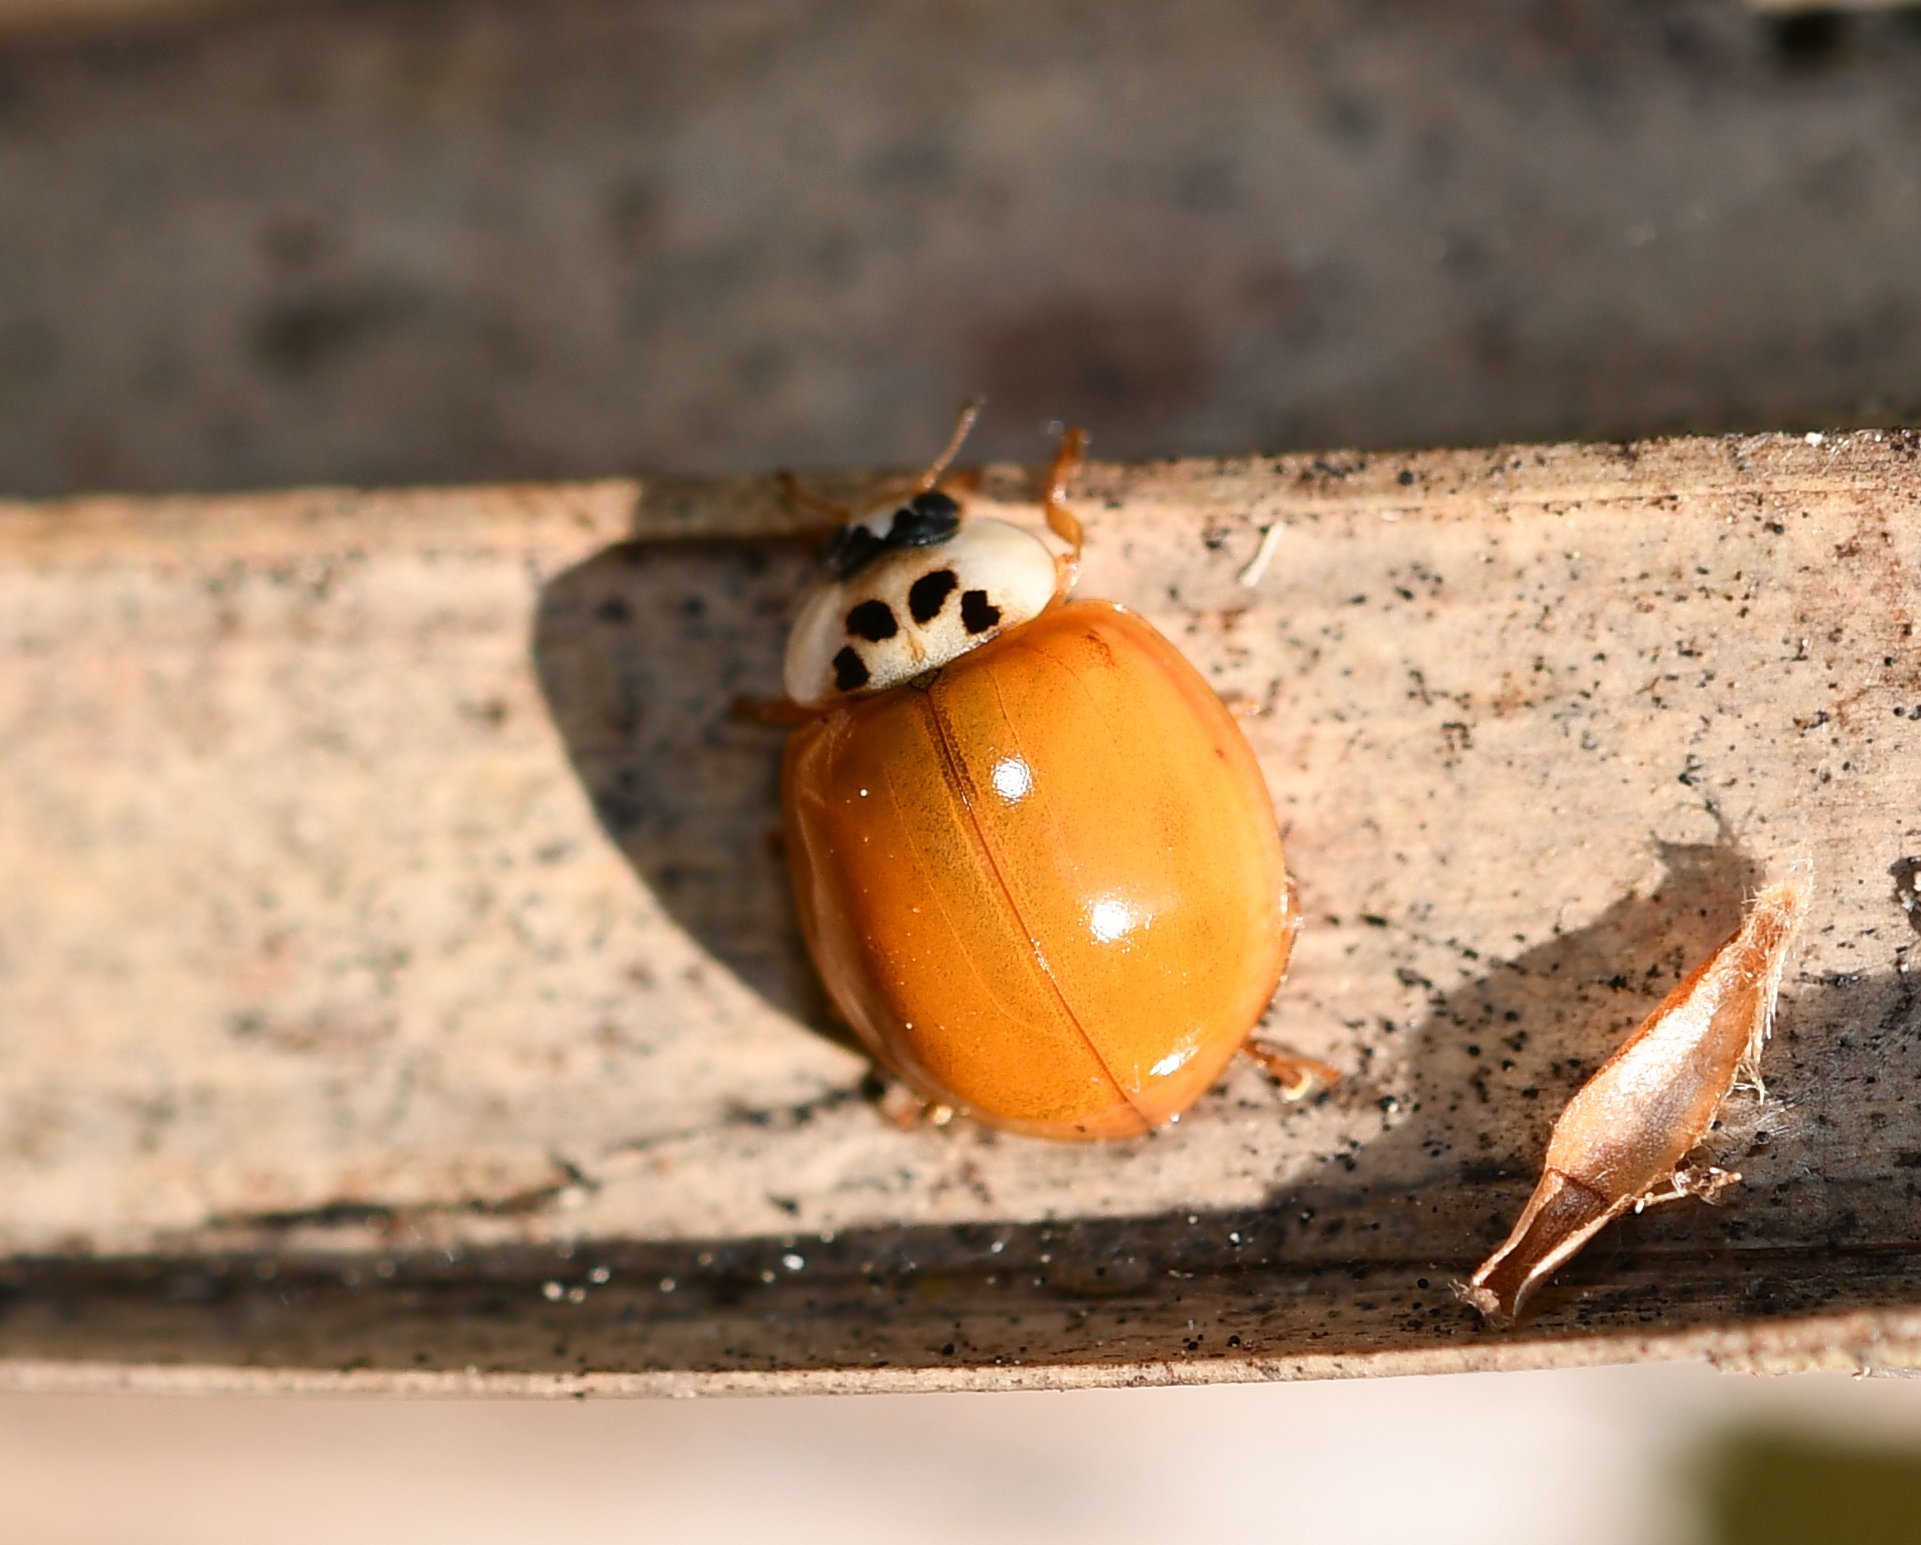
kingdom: Animalia
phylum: Arthropoda
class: Insecta
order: Coleoptera
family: Coccinellidae
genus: Harmonia
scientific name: Harmonia axyridis
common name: Harlequin ladybird
